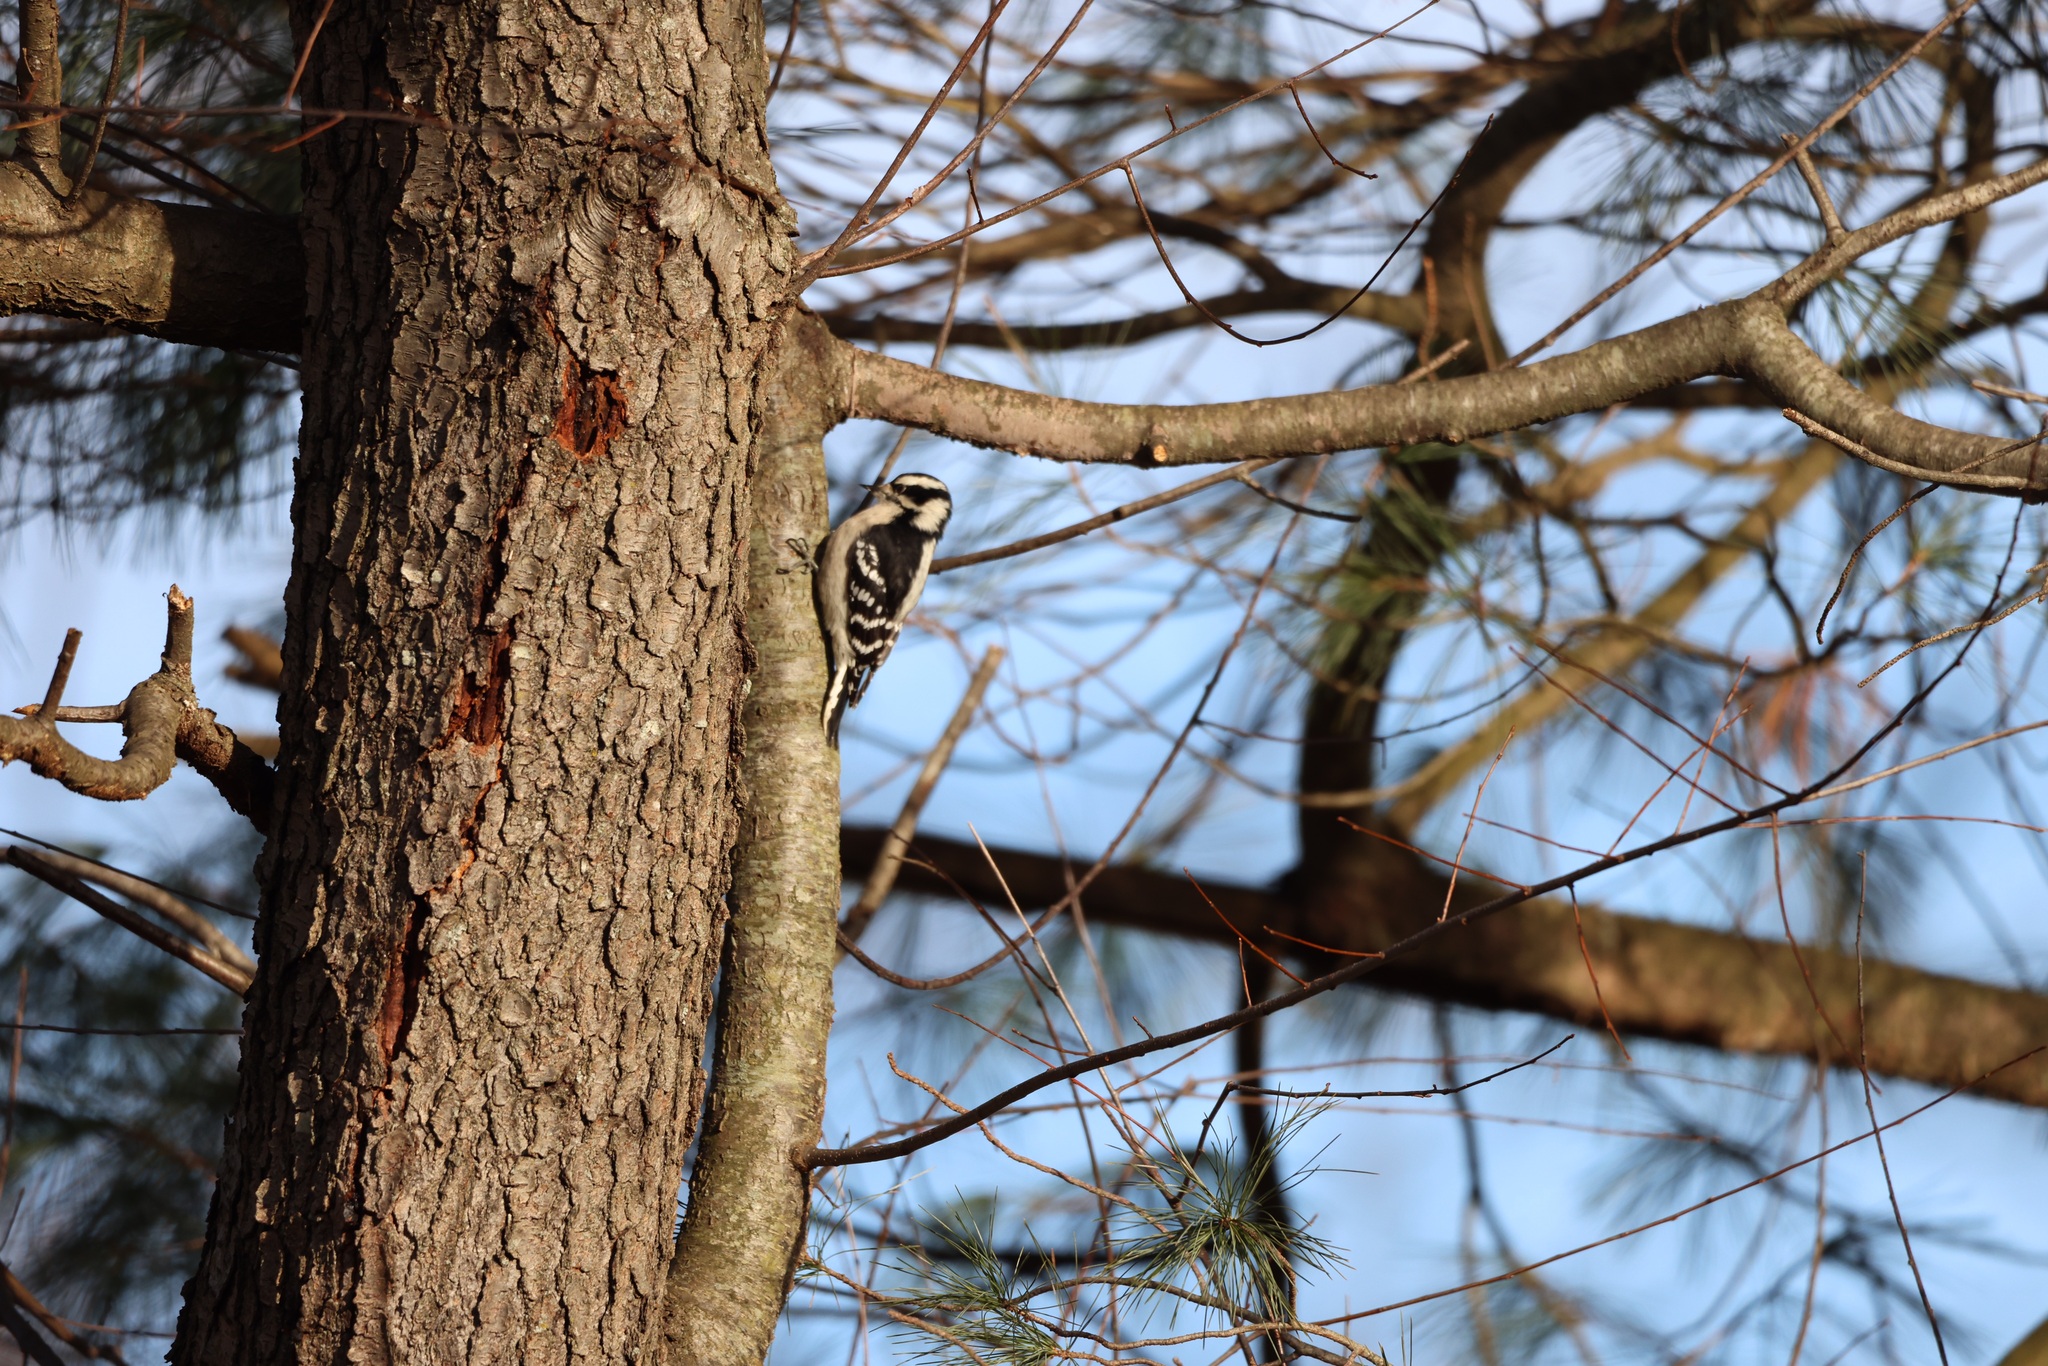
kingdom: Animalia
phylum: Chordata
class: Aves
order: Piciformes
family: Picidae
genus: Dryobates
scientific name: Dryobates pubescens
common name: Downy woodpecker
